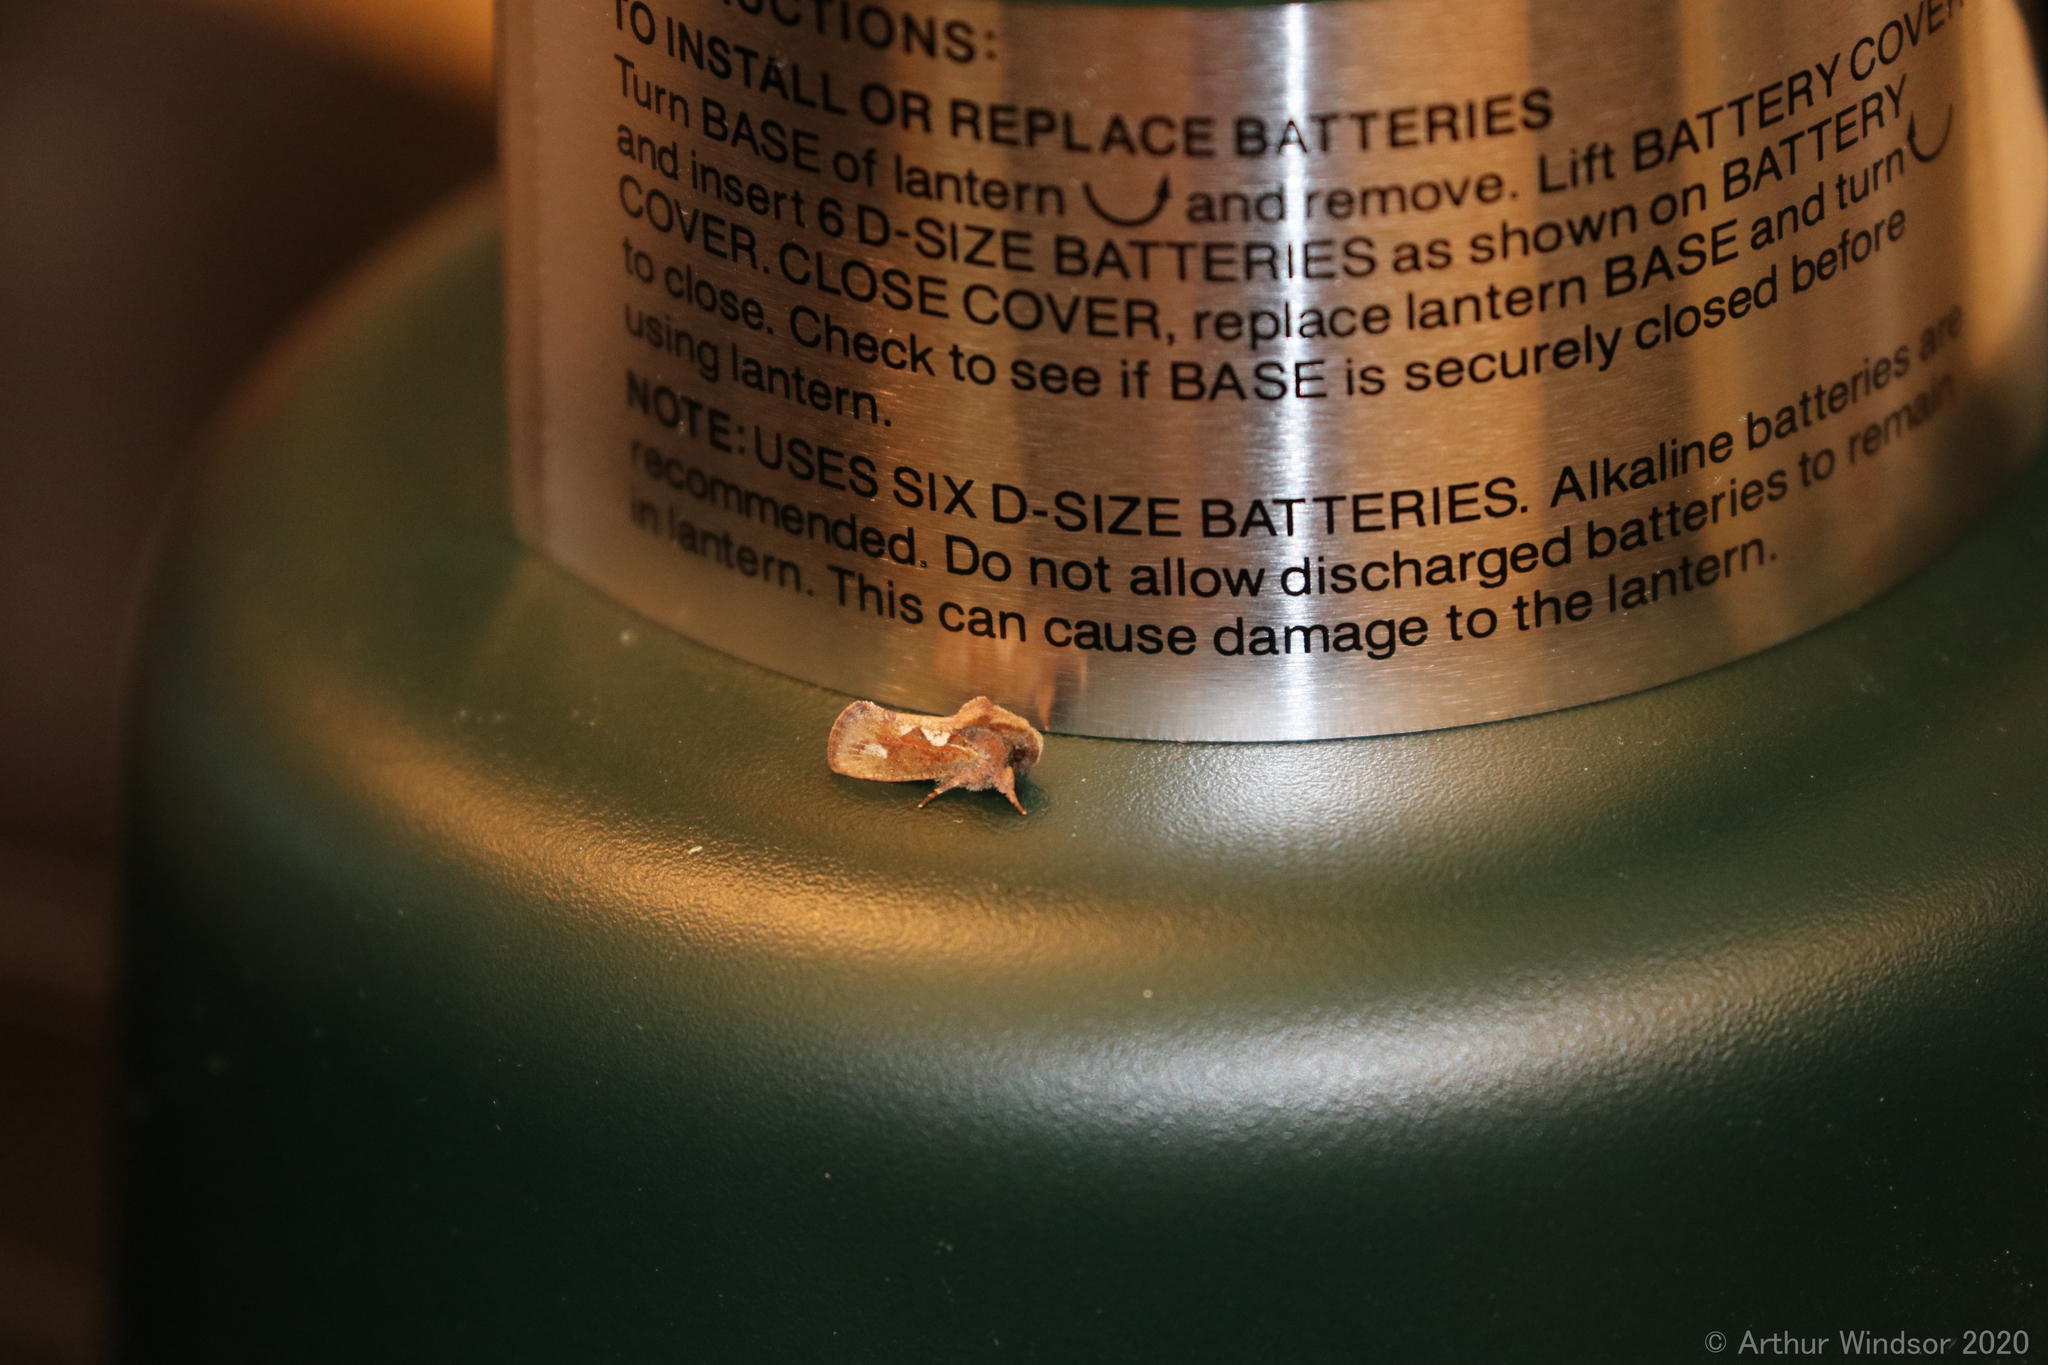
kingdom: Animalia
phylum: Arthropoda
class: Insecta
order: Lepidoptera
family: Tineidae
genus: Acrolophus
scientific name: Acrolophus walsinghami
